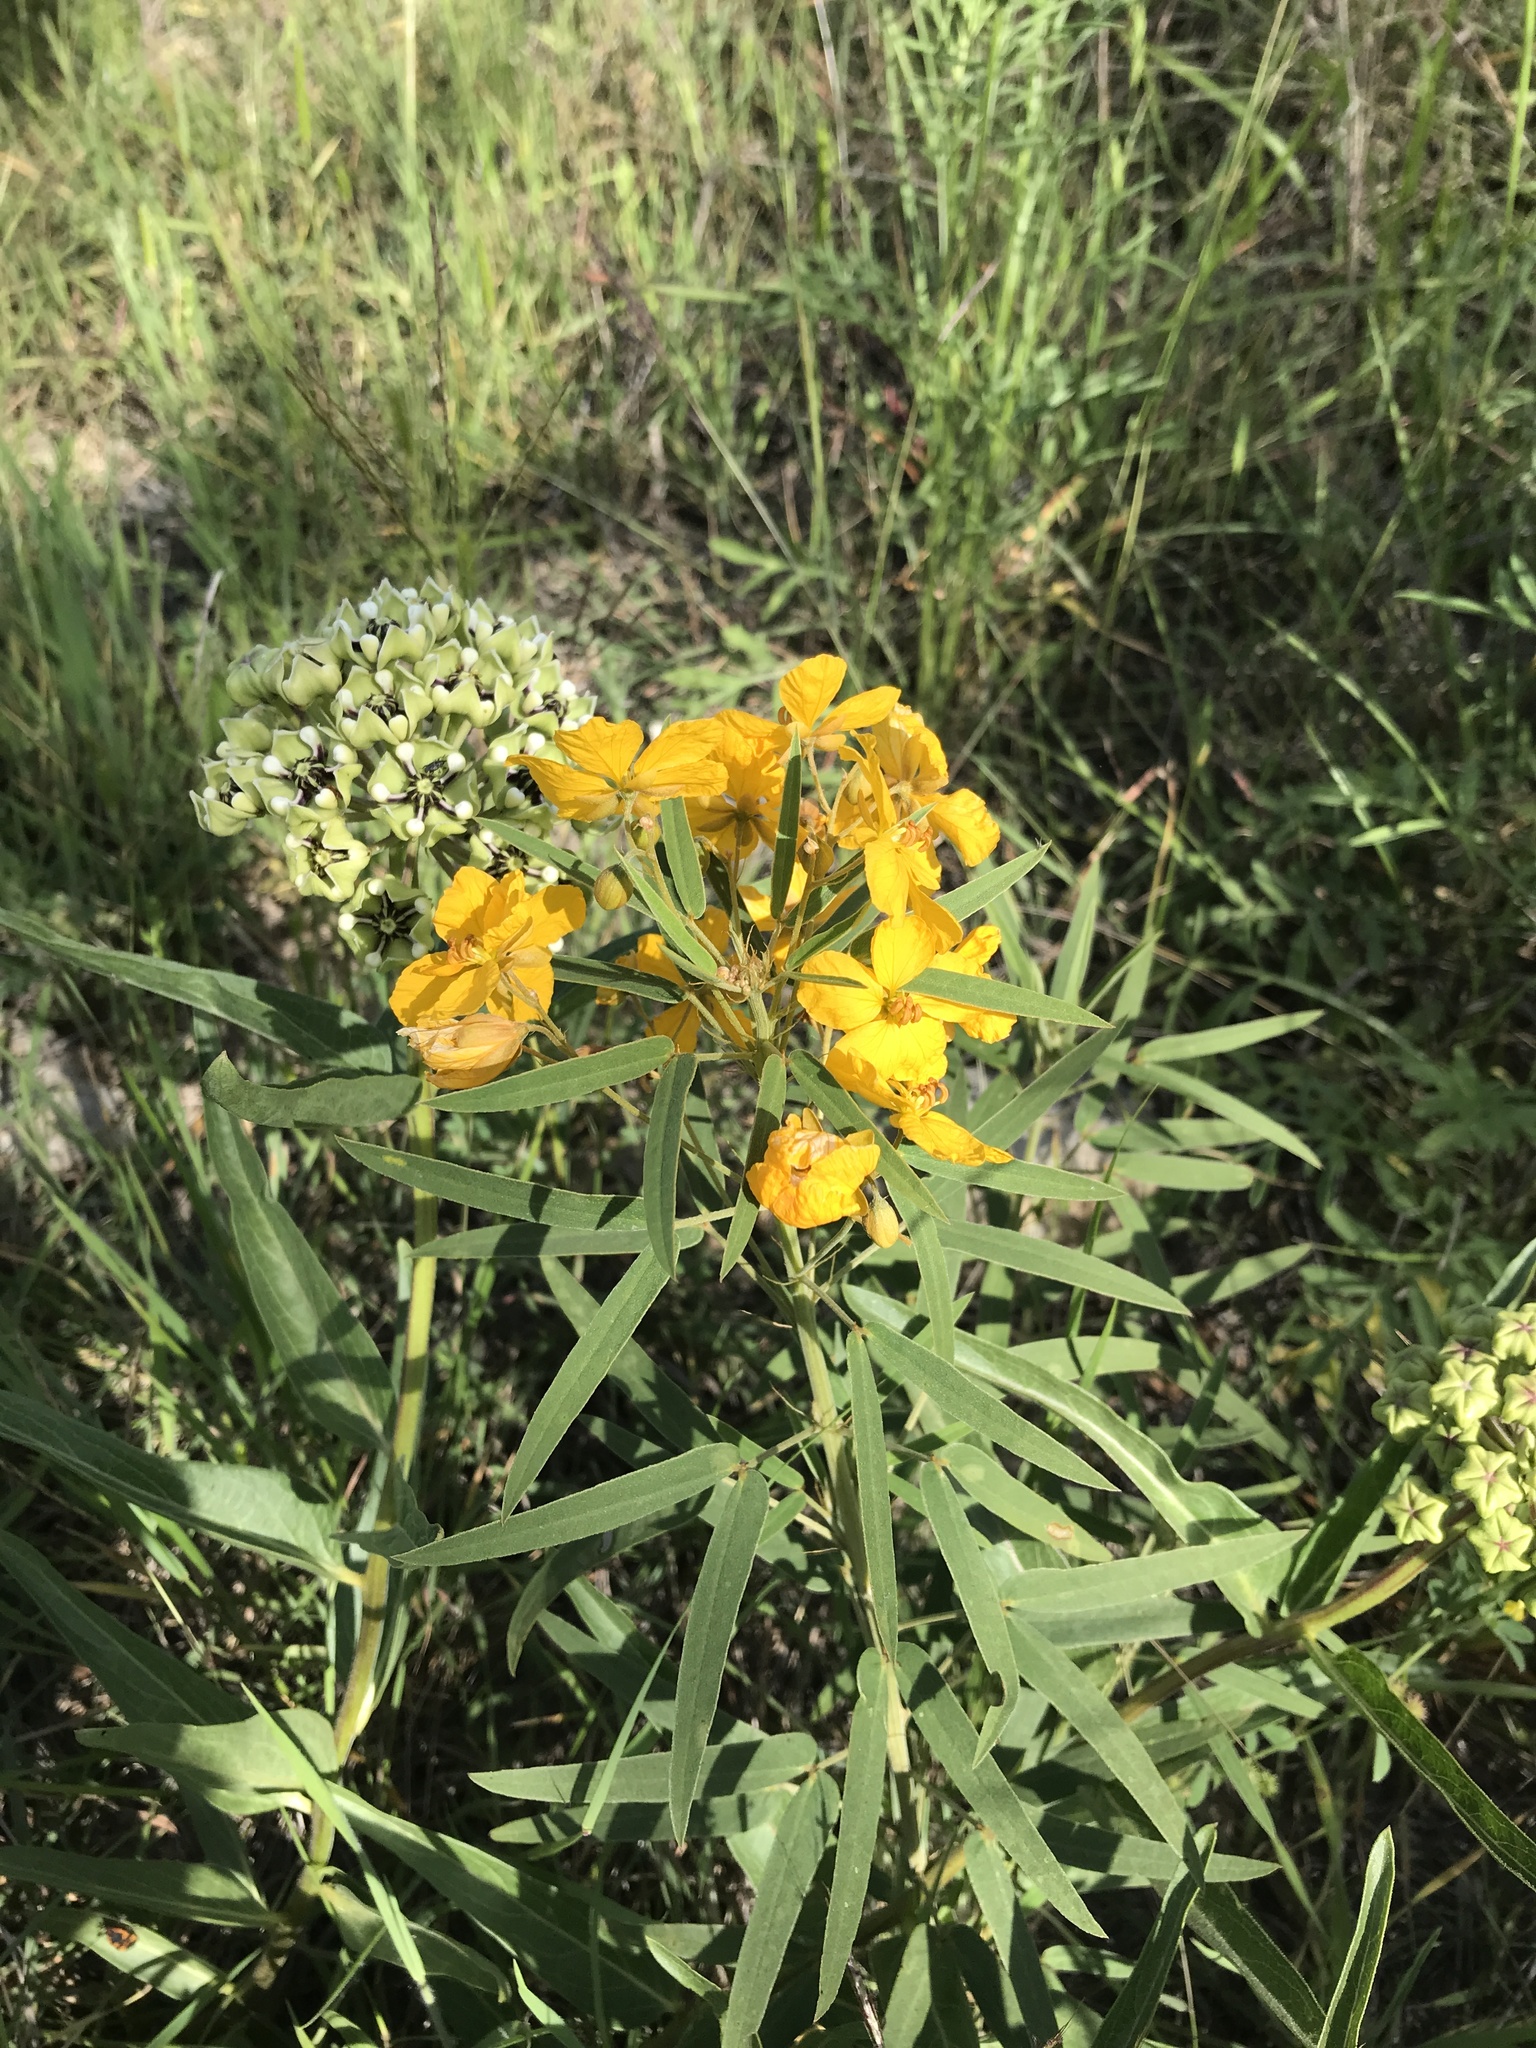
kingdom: Plantae
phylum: Tracheophyta
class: Magnoliopsida
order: Fabales
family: Fabaceae
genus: Senna
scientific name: Senna roemeriana
